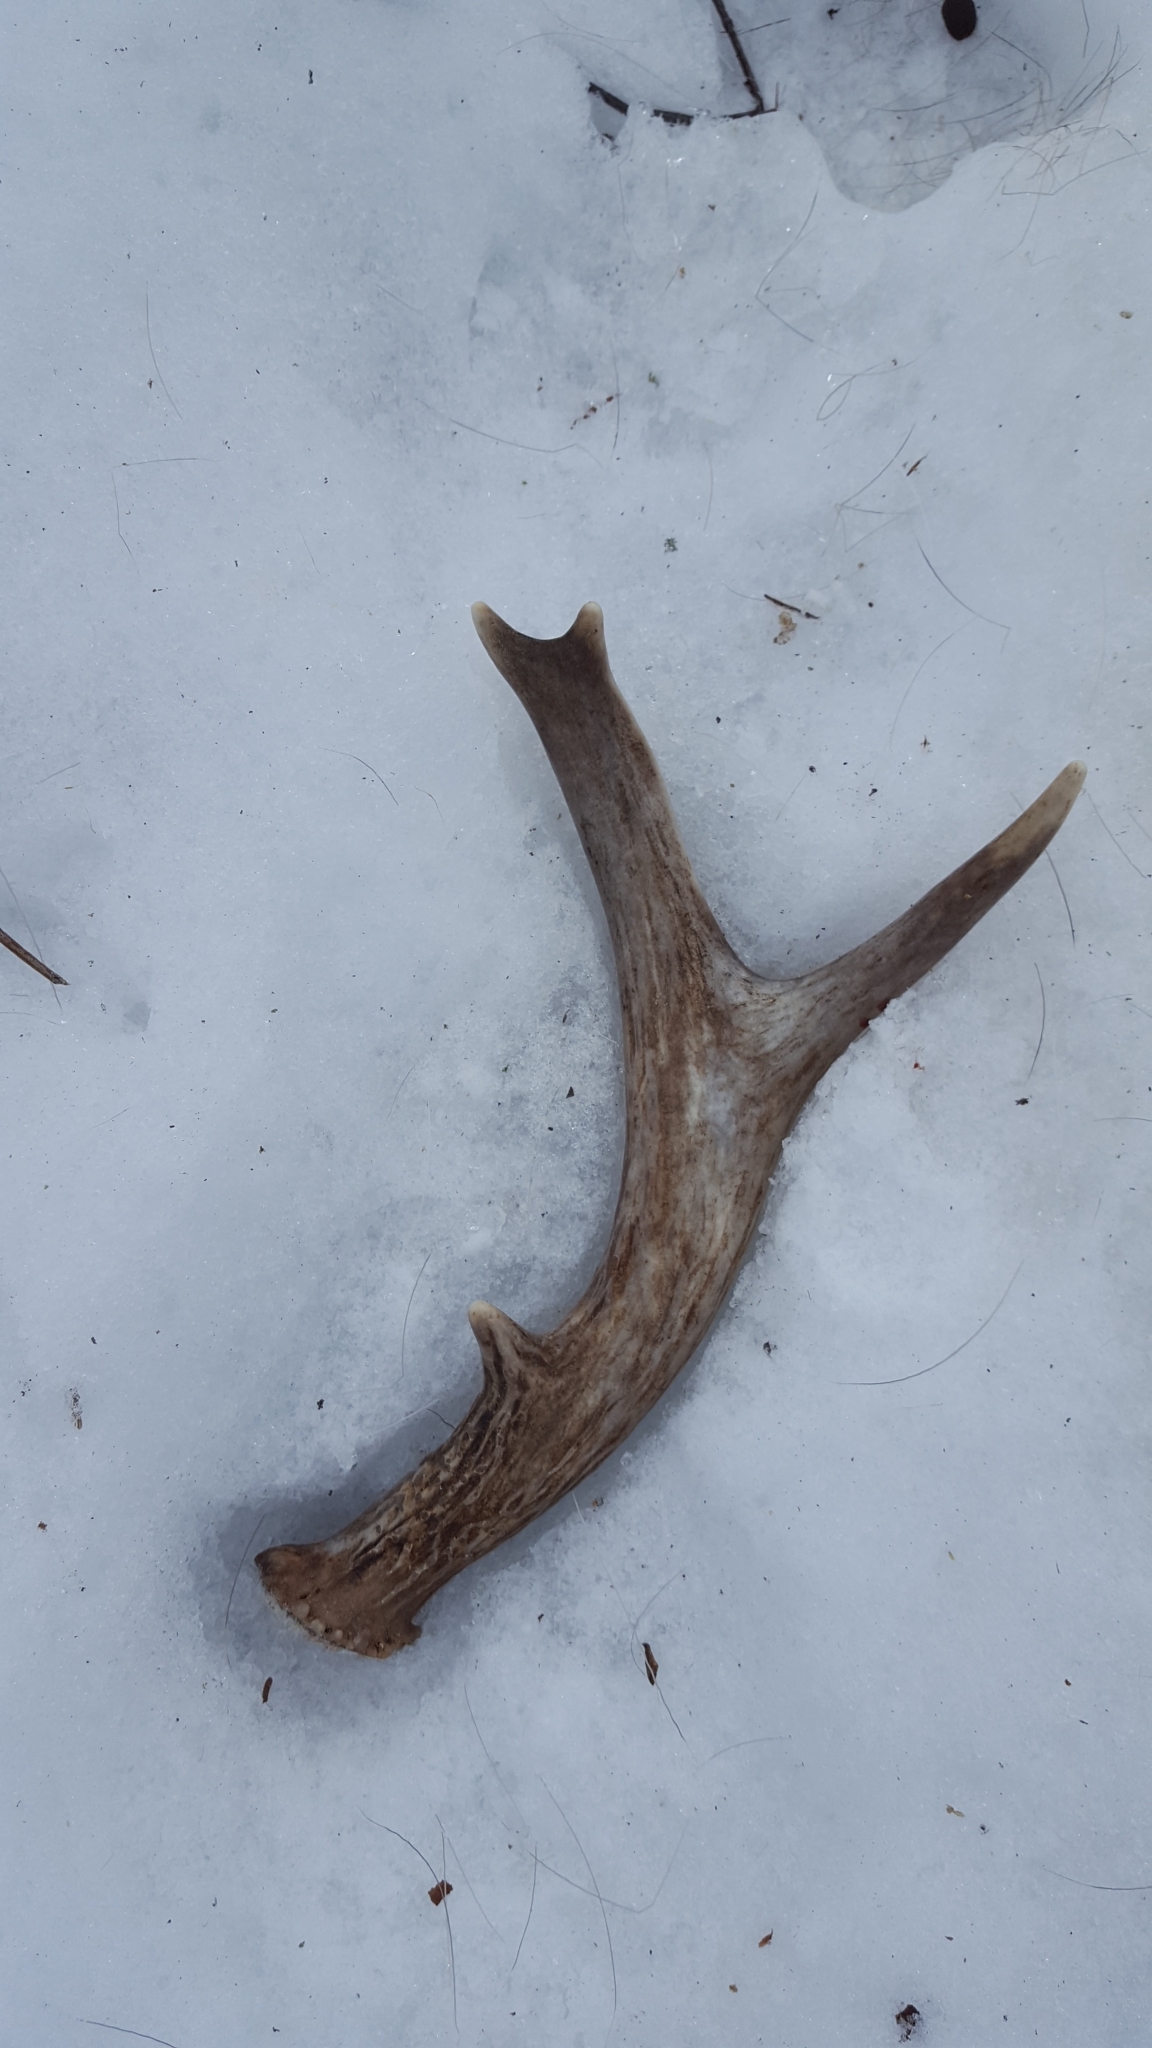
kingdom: Animalia
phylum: Chordata
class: Mammalia
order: Artiodactyla
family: Cervidae
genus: Odocoileus
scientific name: Odocoileus virginianus
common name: White-tailed deer
